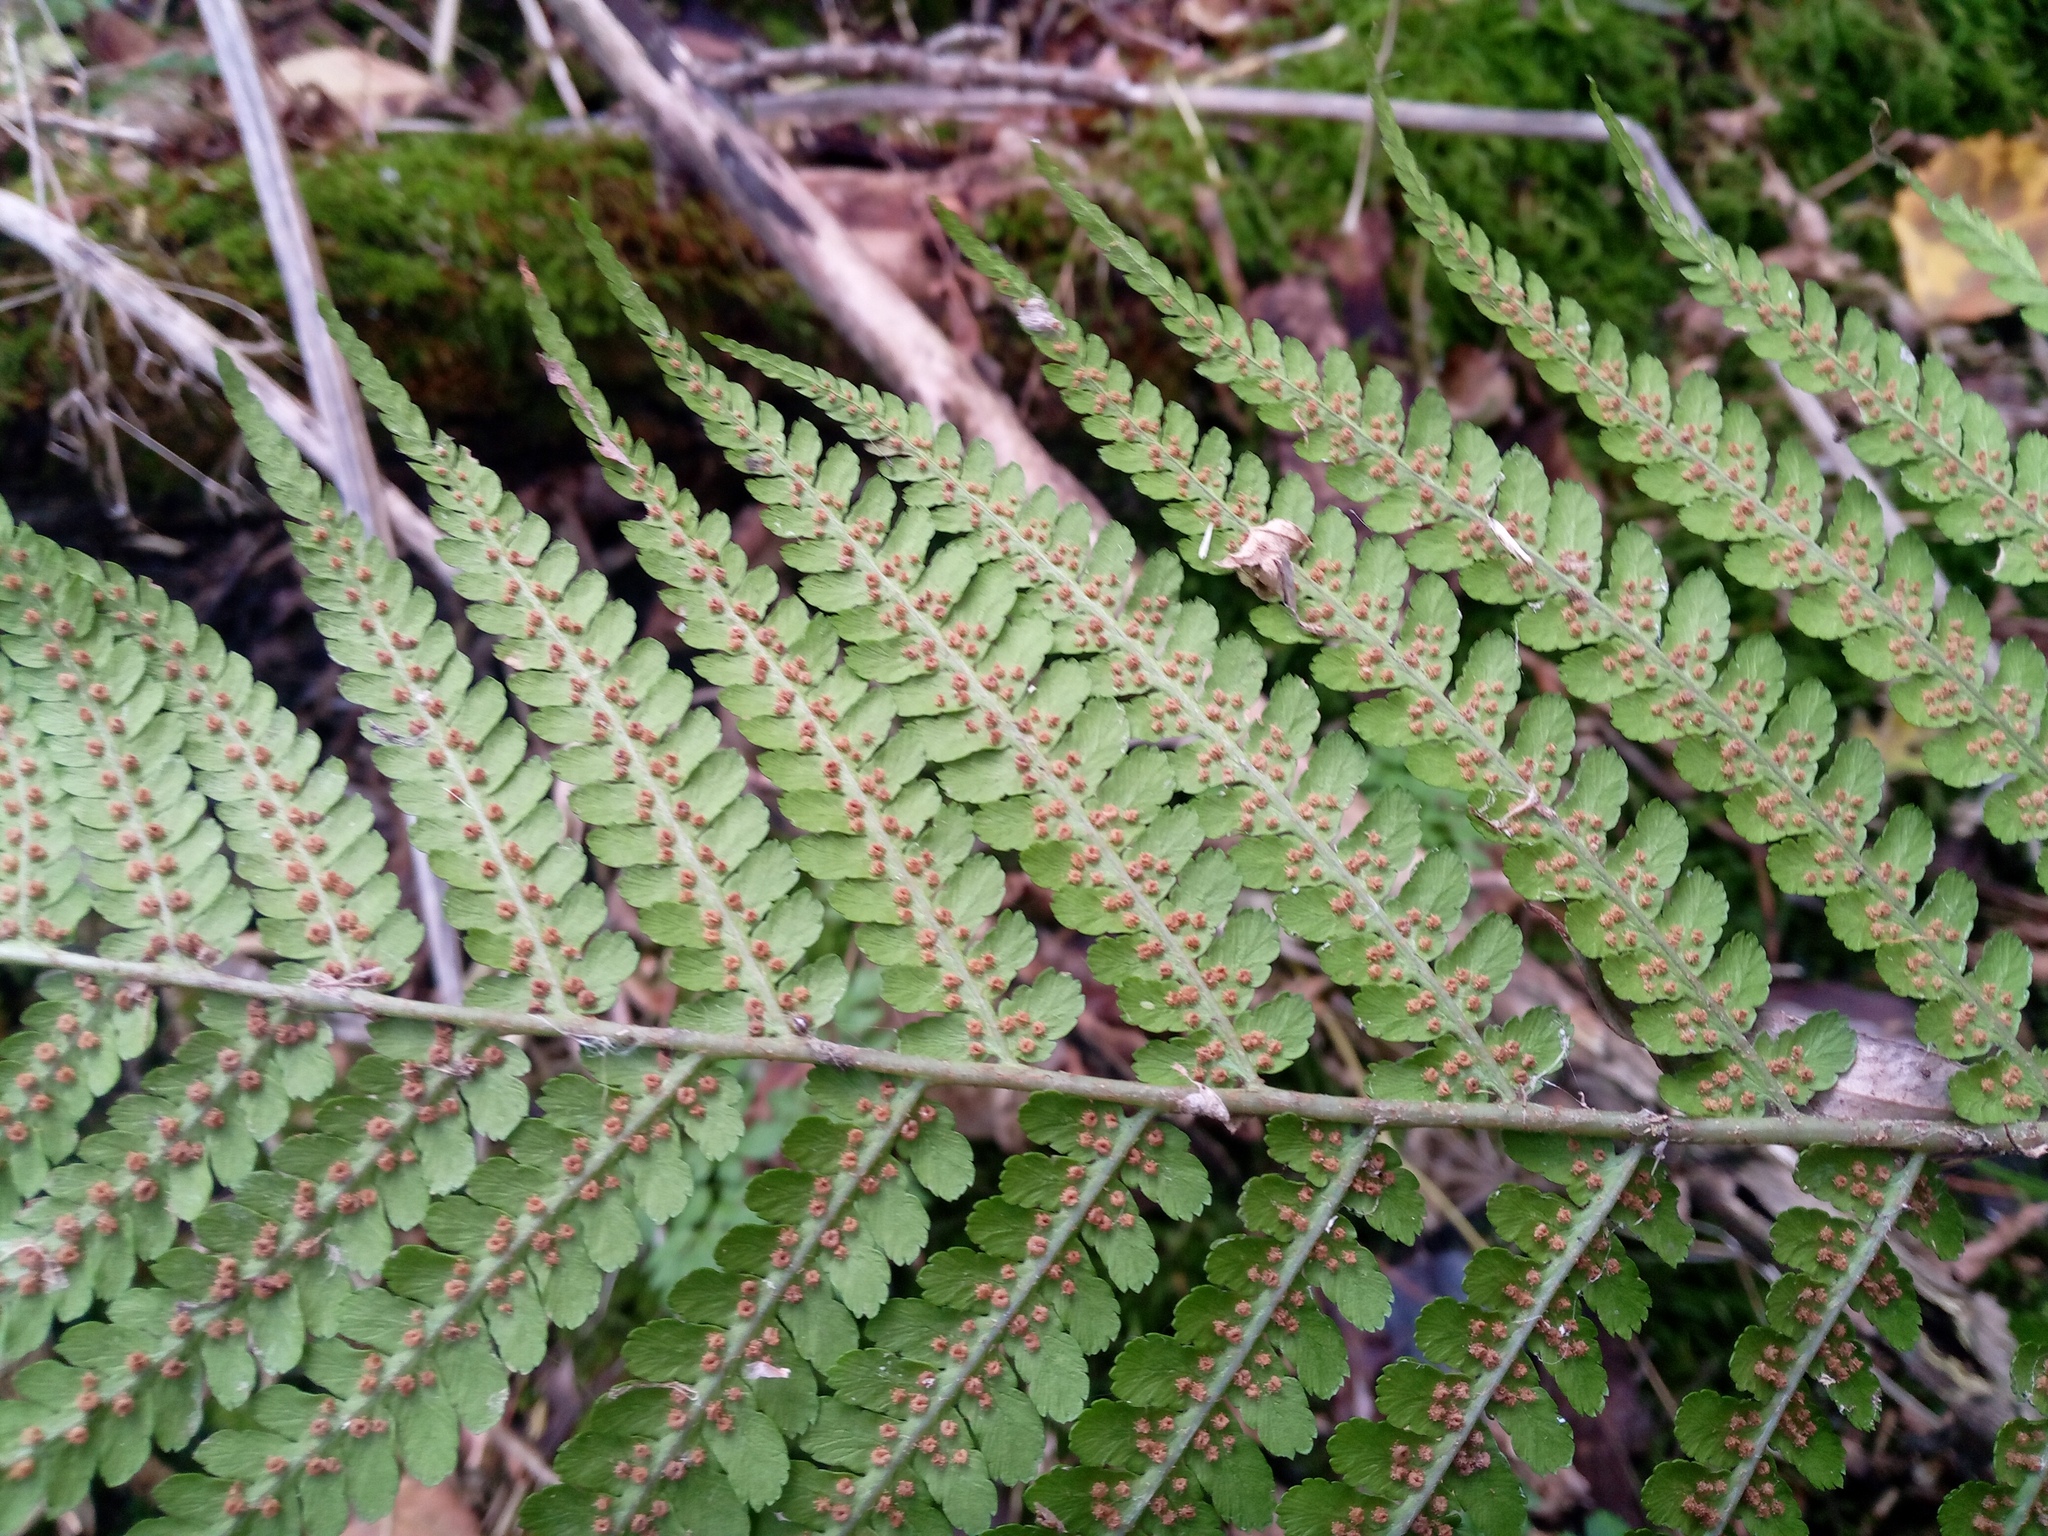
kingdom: Plantae
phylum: Tracheophyta
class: Polypodiopsida
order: Polypodiales
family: Dryopteridaceae
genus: Dryopteris
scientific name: Dryopteris filix-mas
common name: Male fern
